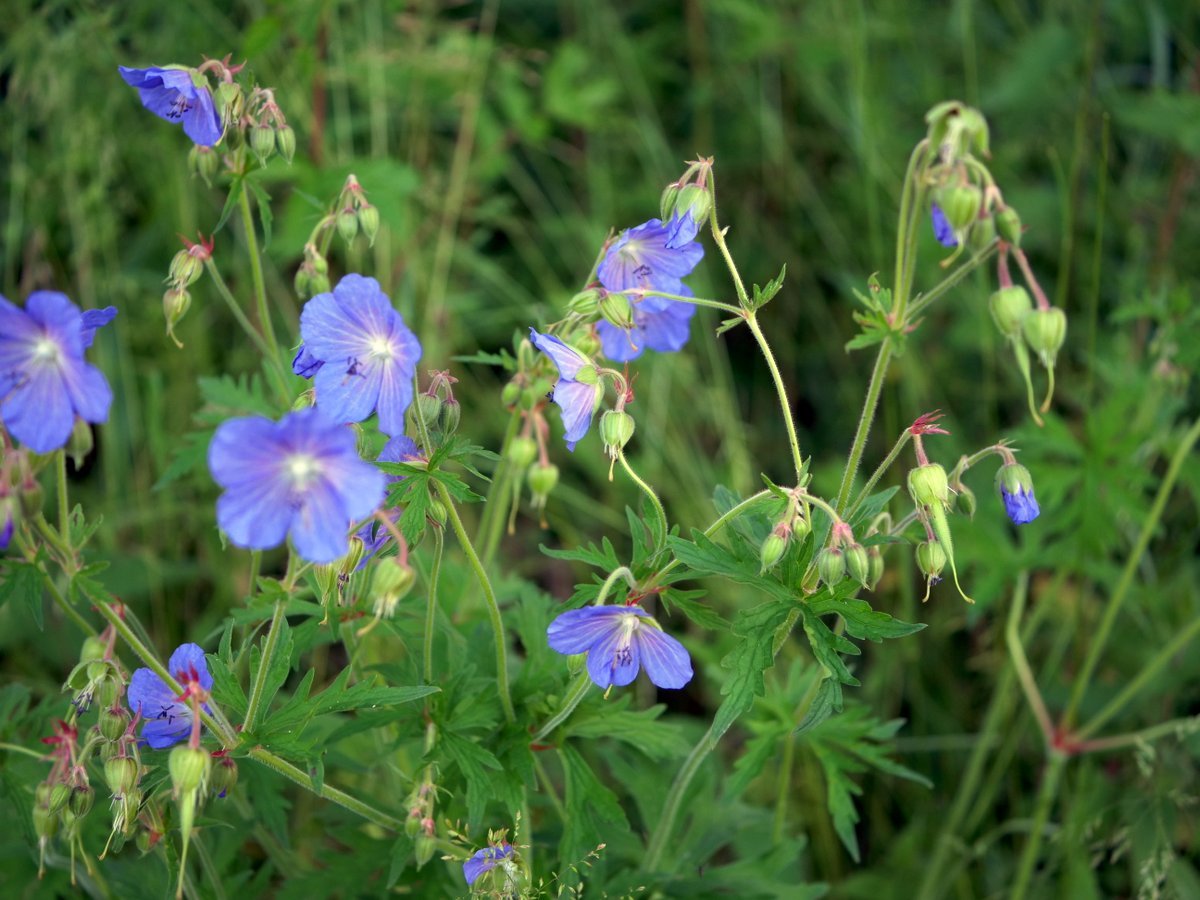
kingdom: Plantae
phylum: Tracheophyta
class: Magnoliopsida
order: Geraniales
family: Geraniaceae
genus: Geranium
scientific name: Geranium pratense
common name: Meadow crane's-bill
